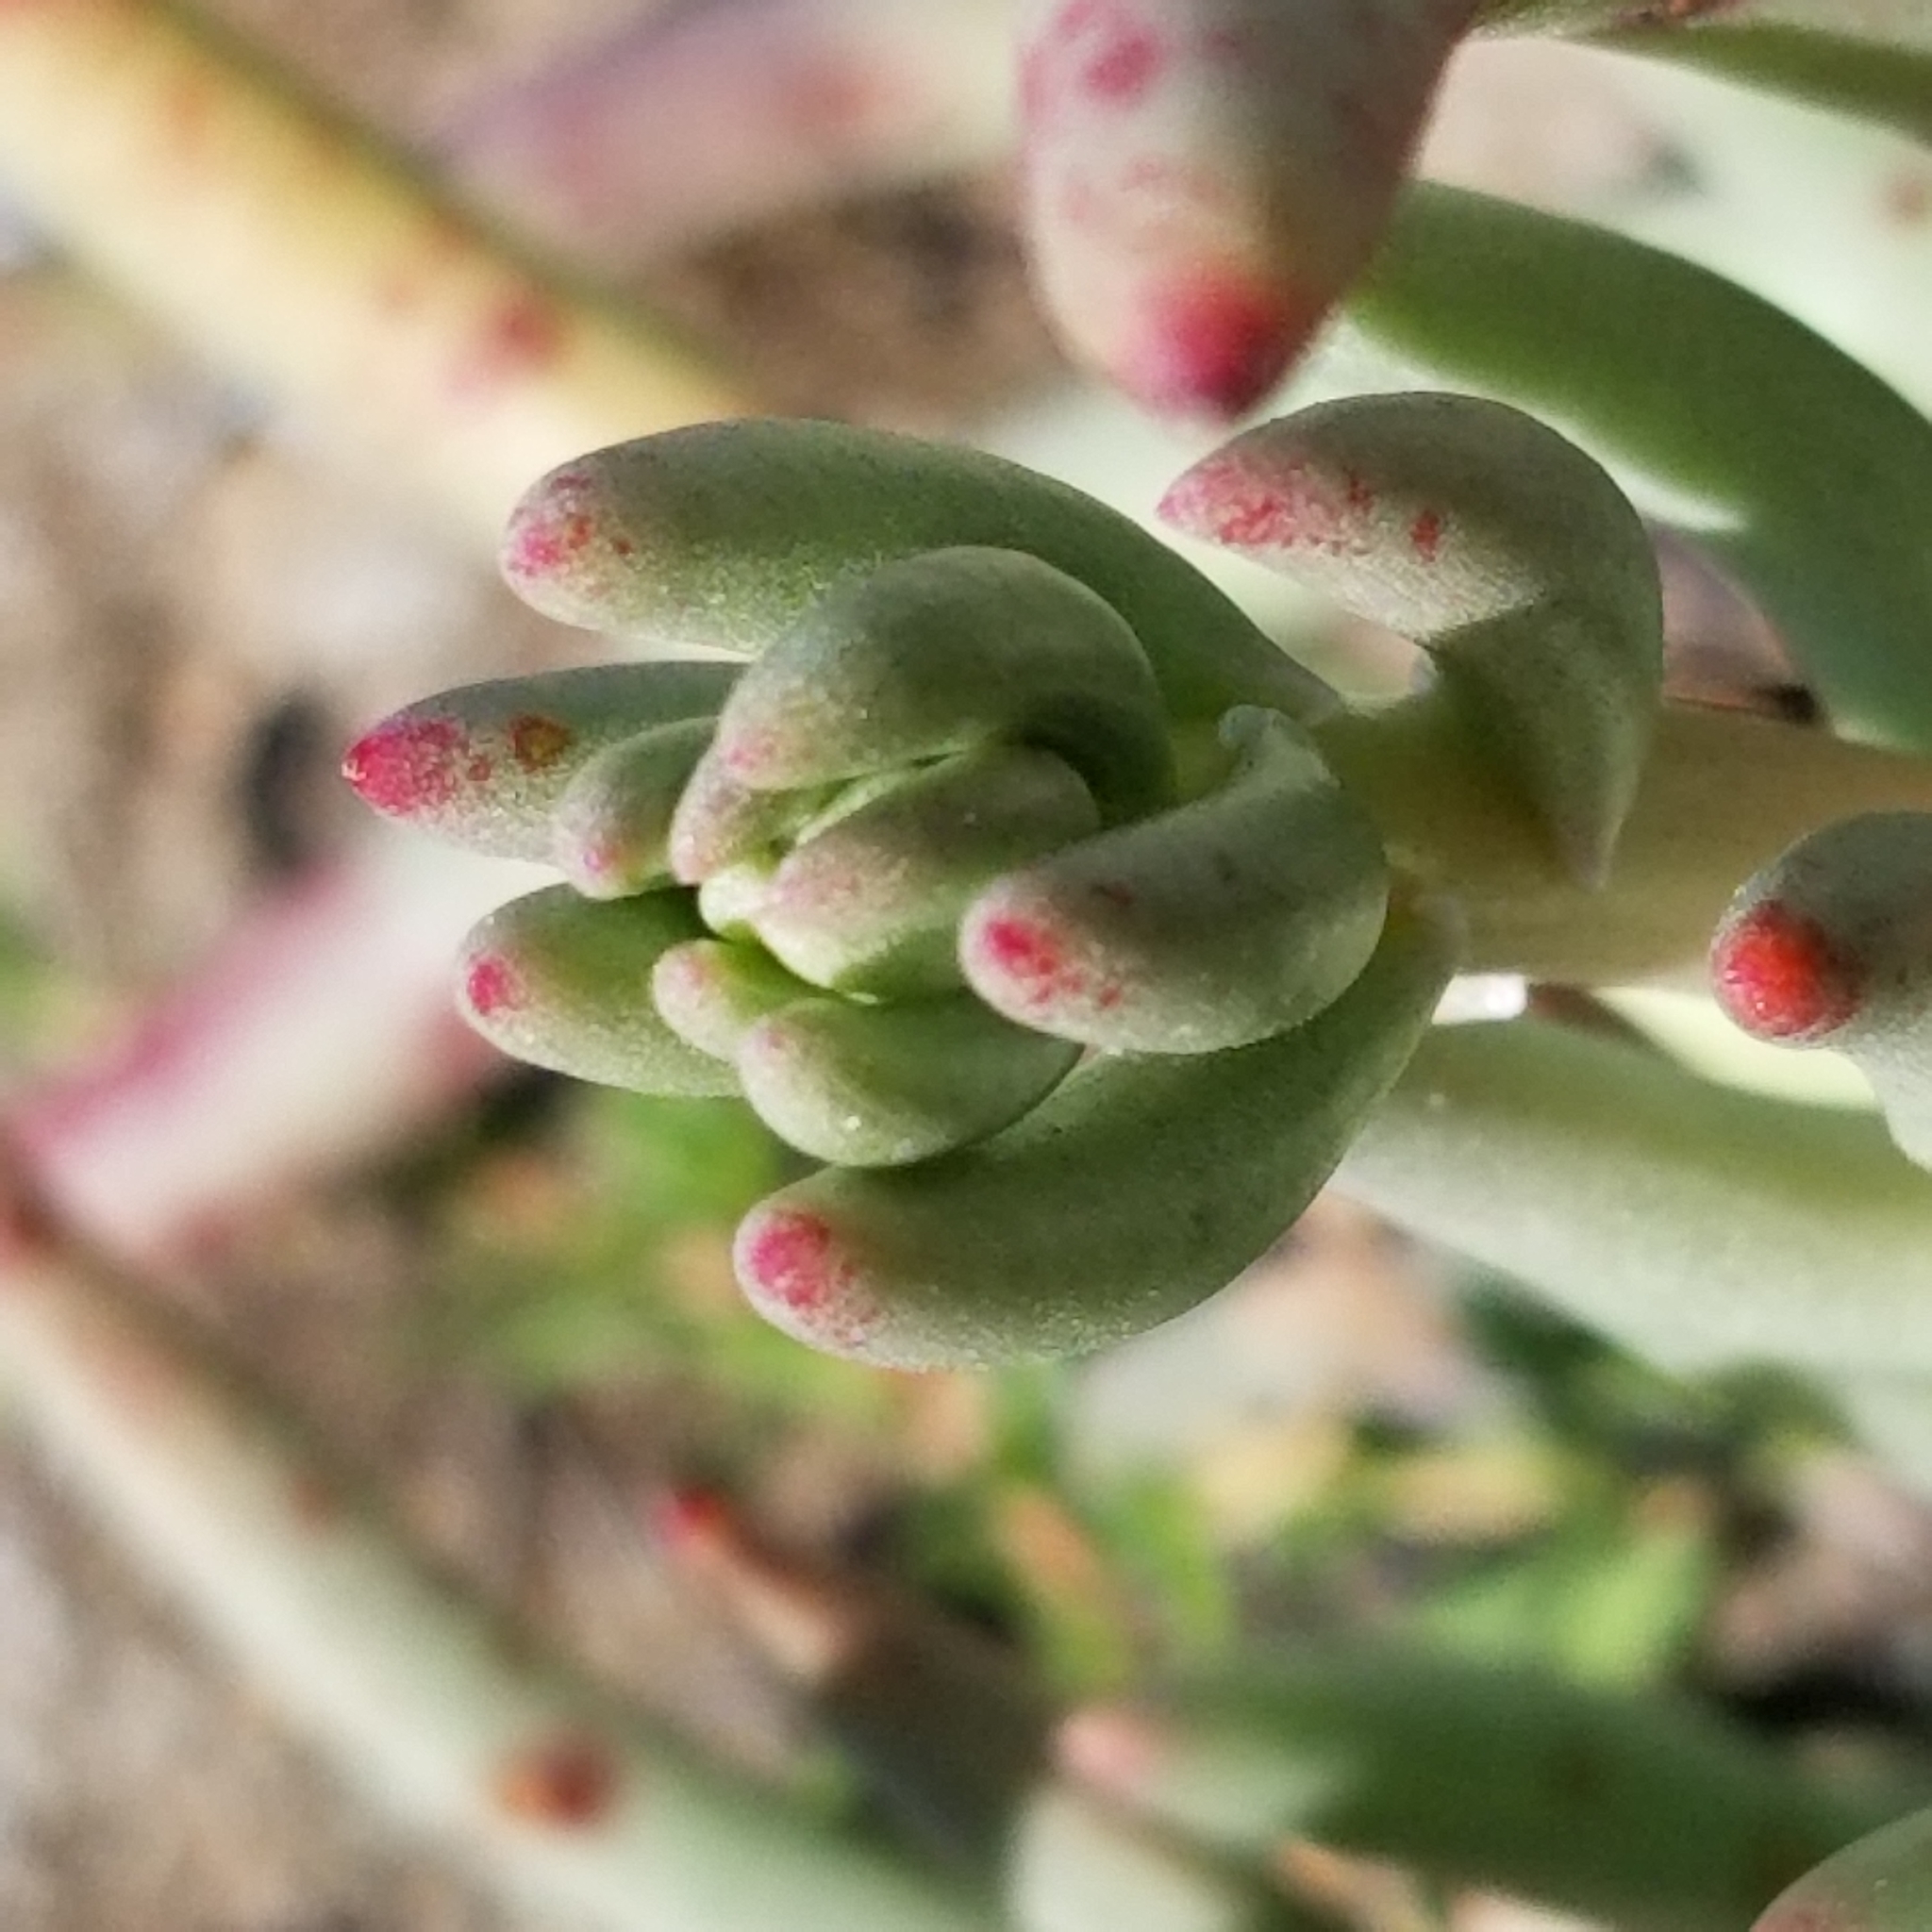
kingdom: Plantae
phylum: Tracheophyta
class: Magnoliopsida
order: Saxifragales
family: Crassulaceae
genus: Dudleya
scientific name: Dudleya edulis
